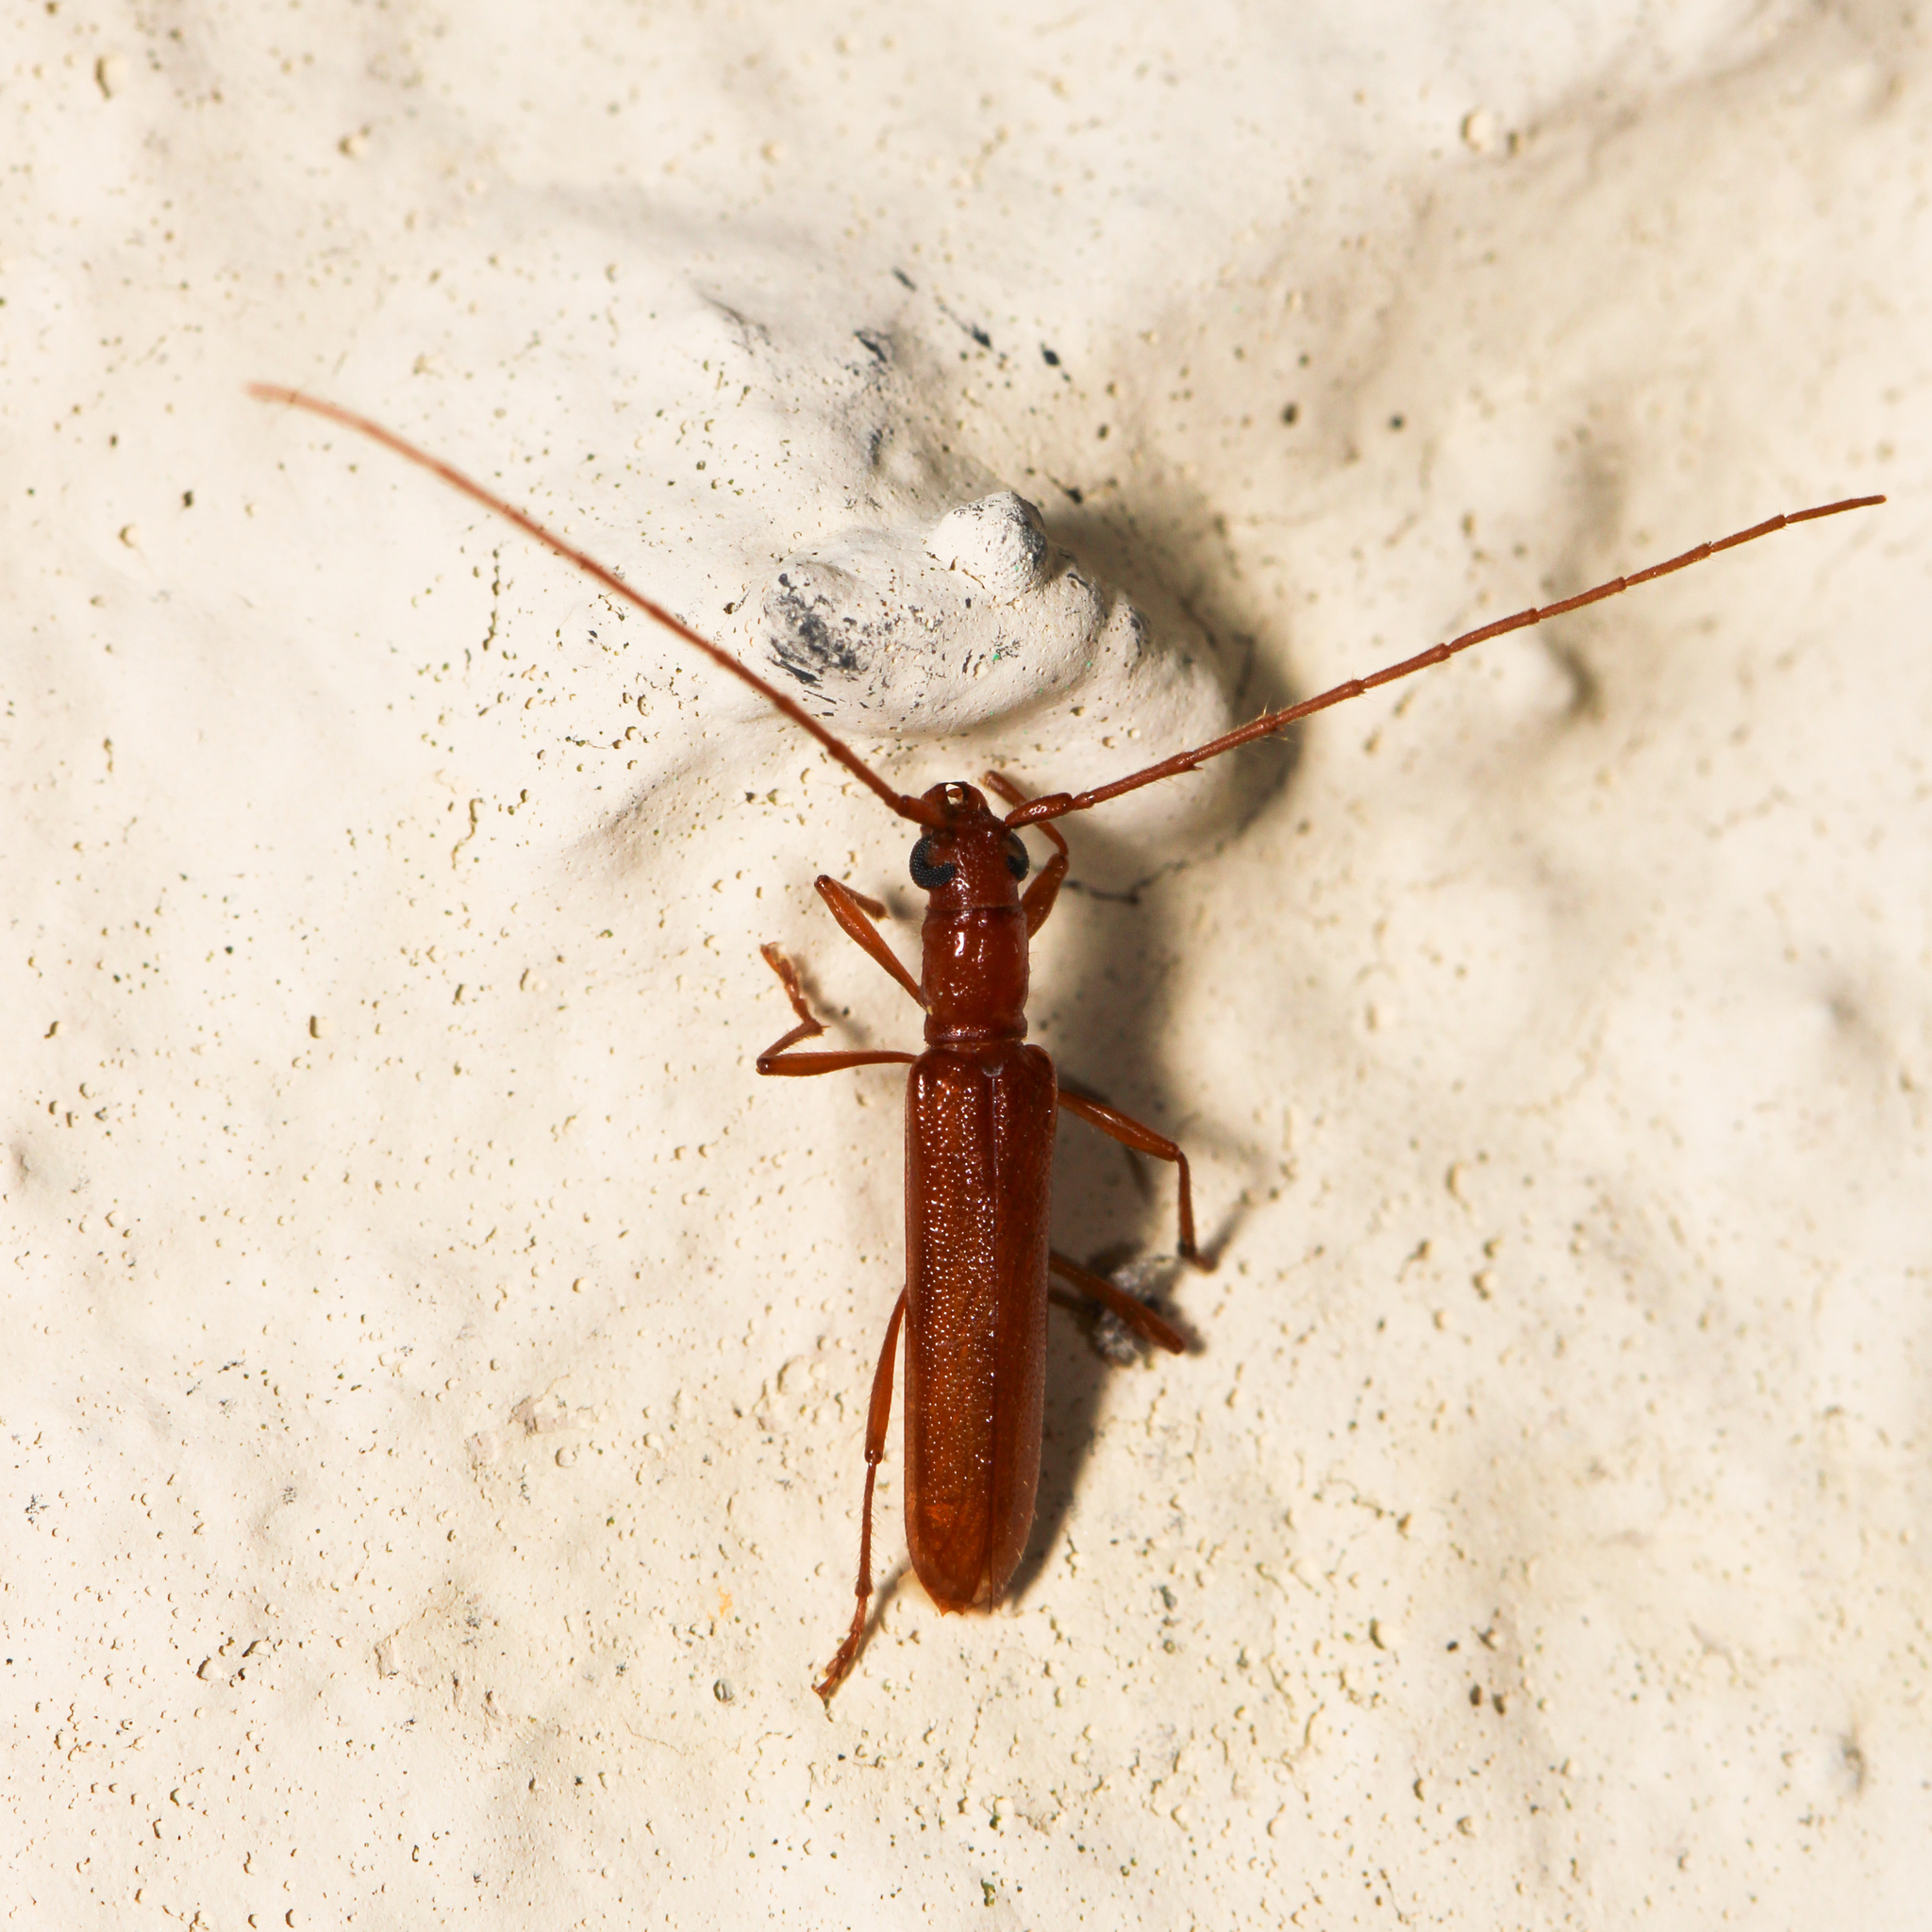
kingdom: Animalia
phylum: Arthropoda
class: Insecta
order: Coleoptera
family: Cerambycidae
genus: Psyrassa
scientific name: Psyrassa unicolor
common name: Branch pruner
